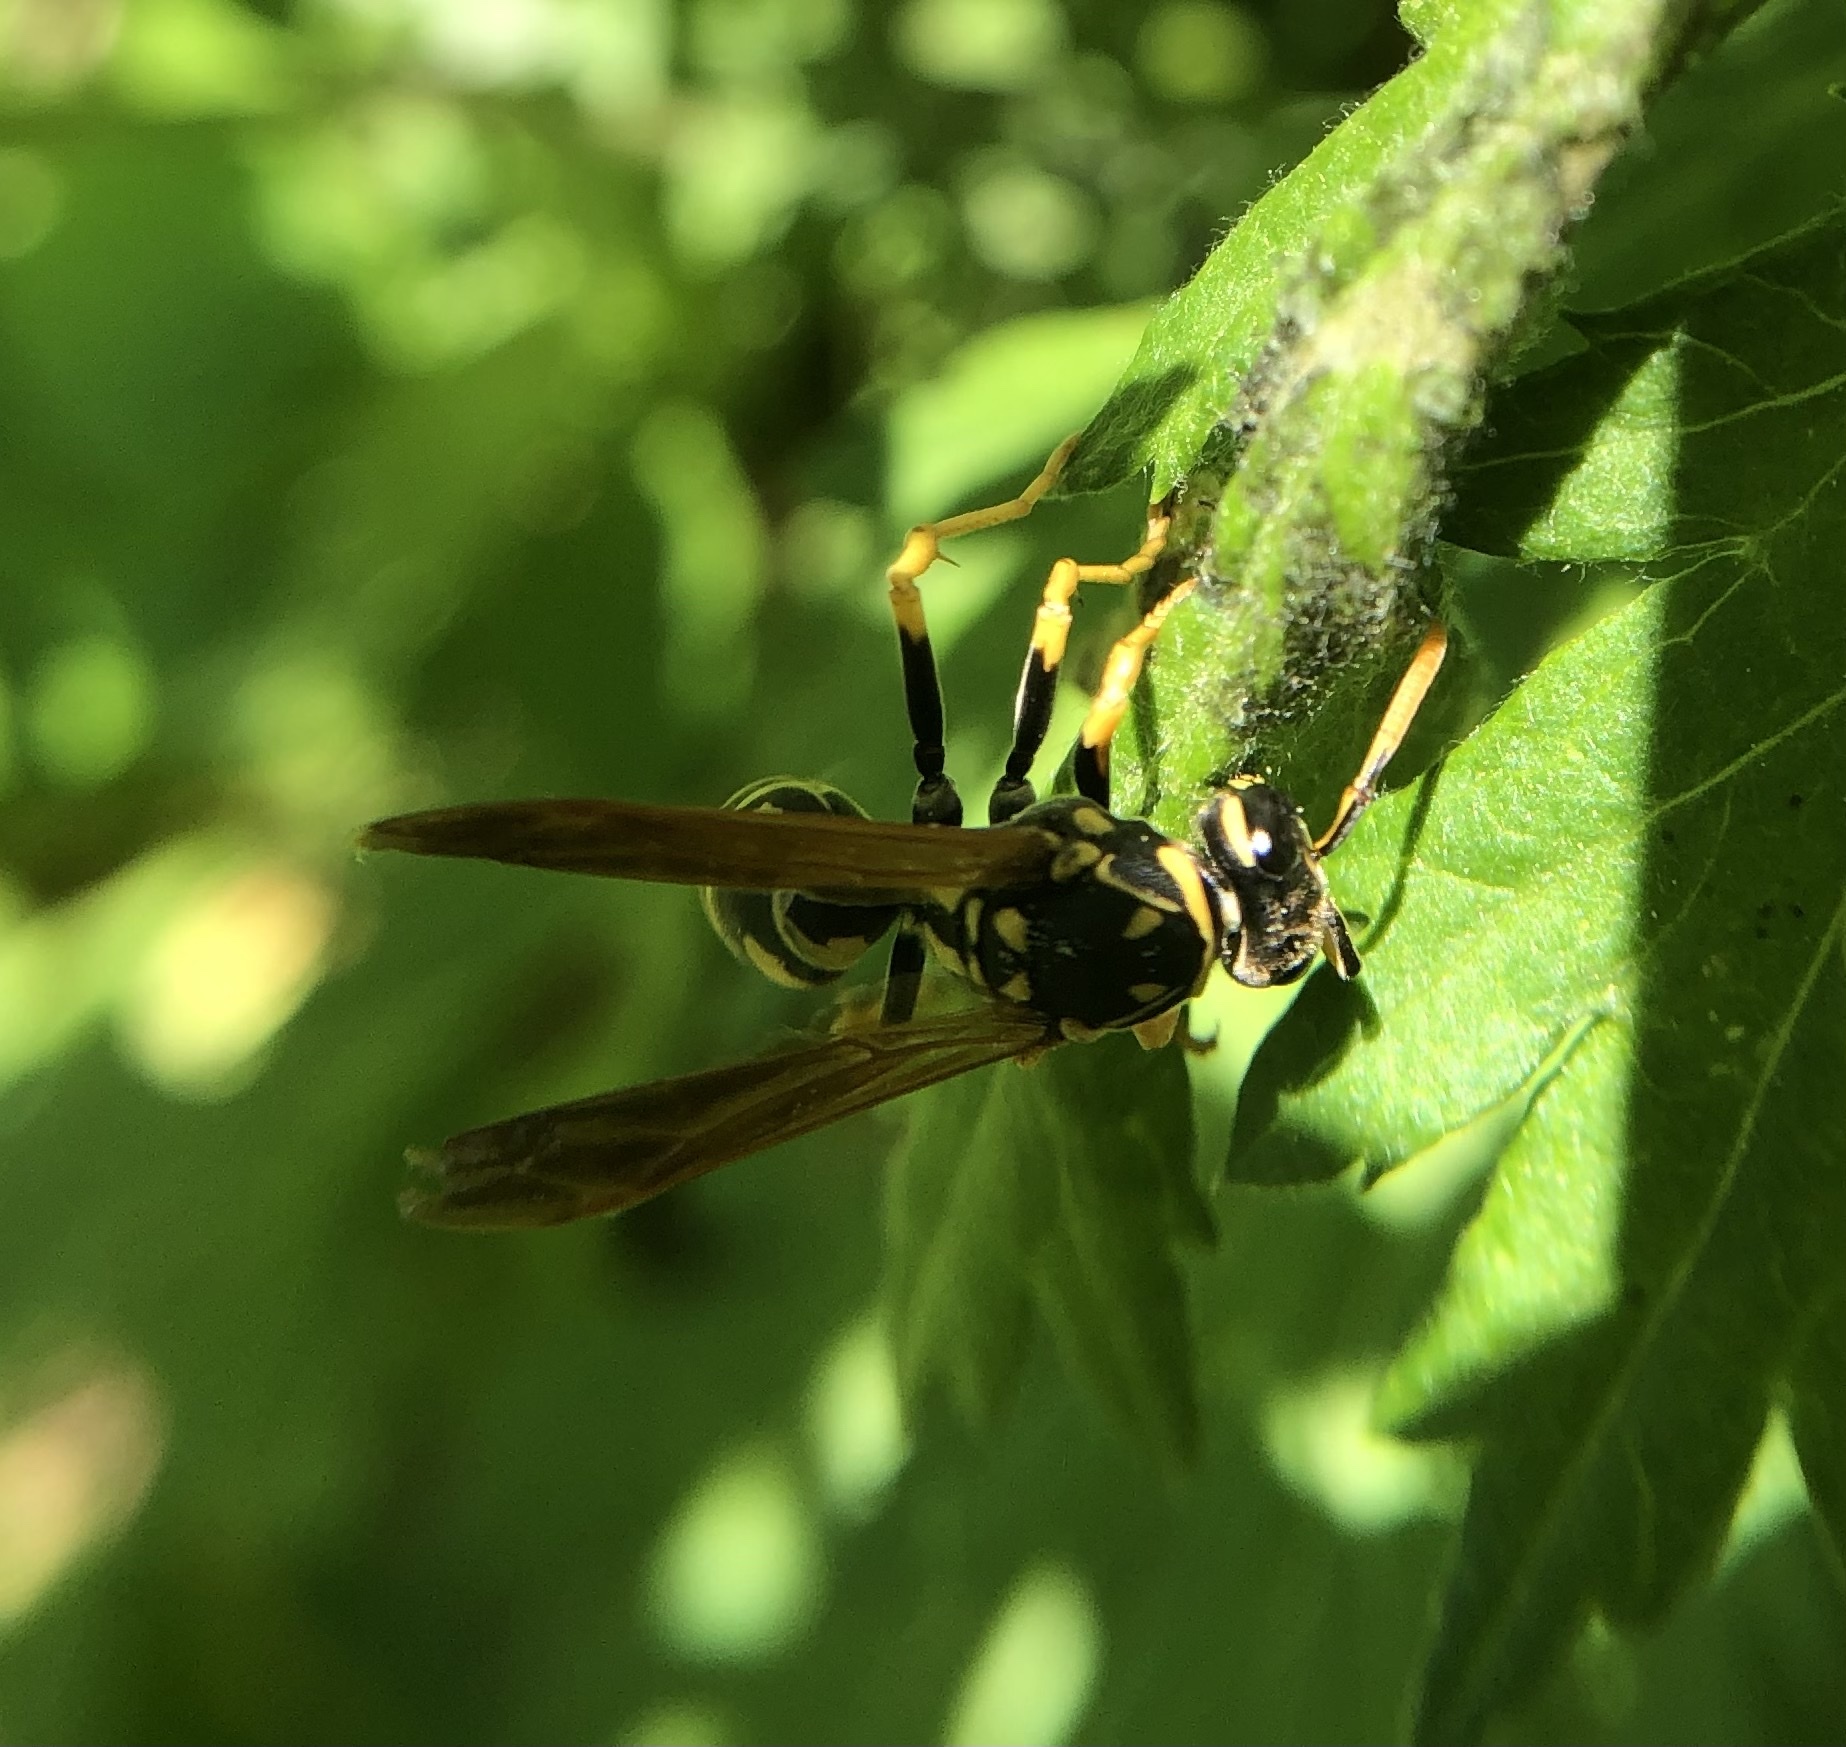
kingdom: Animalia
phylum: Arthropoda
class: Insecta
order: Hymenoptera
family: Eumenidae
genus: Polistes
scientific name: Polistes dominula
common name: Paper wasp
